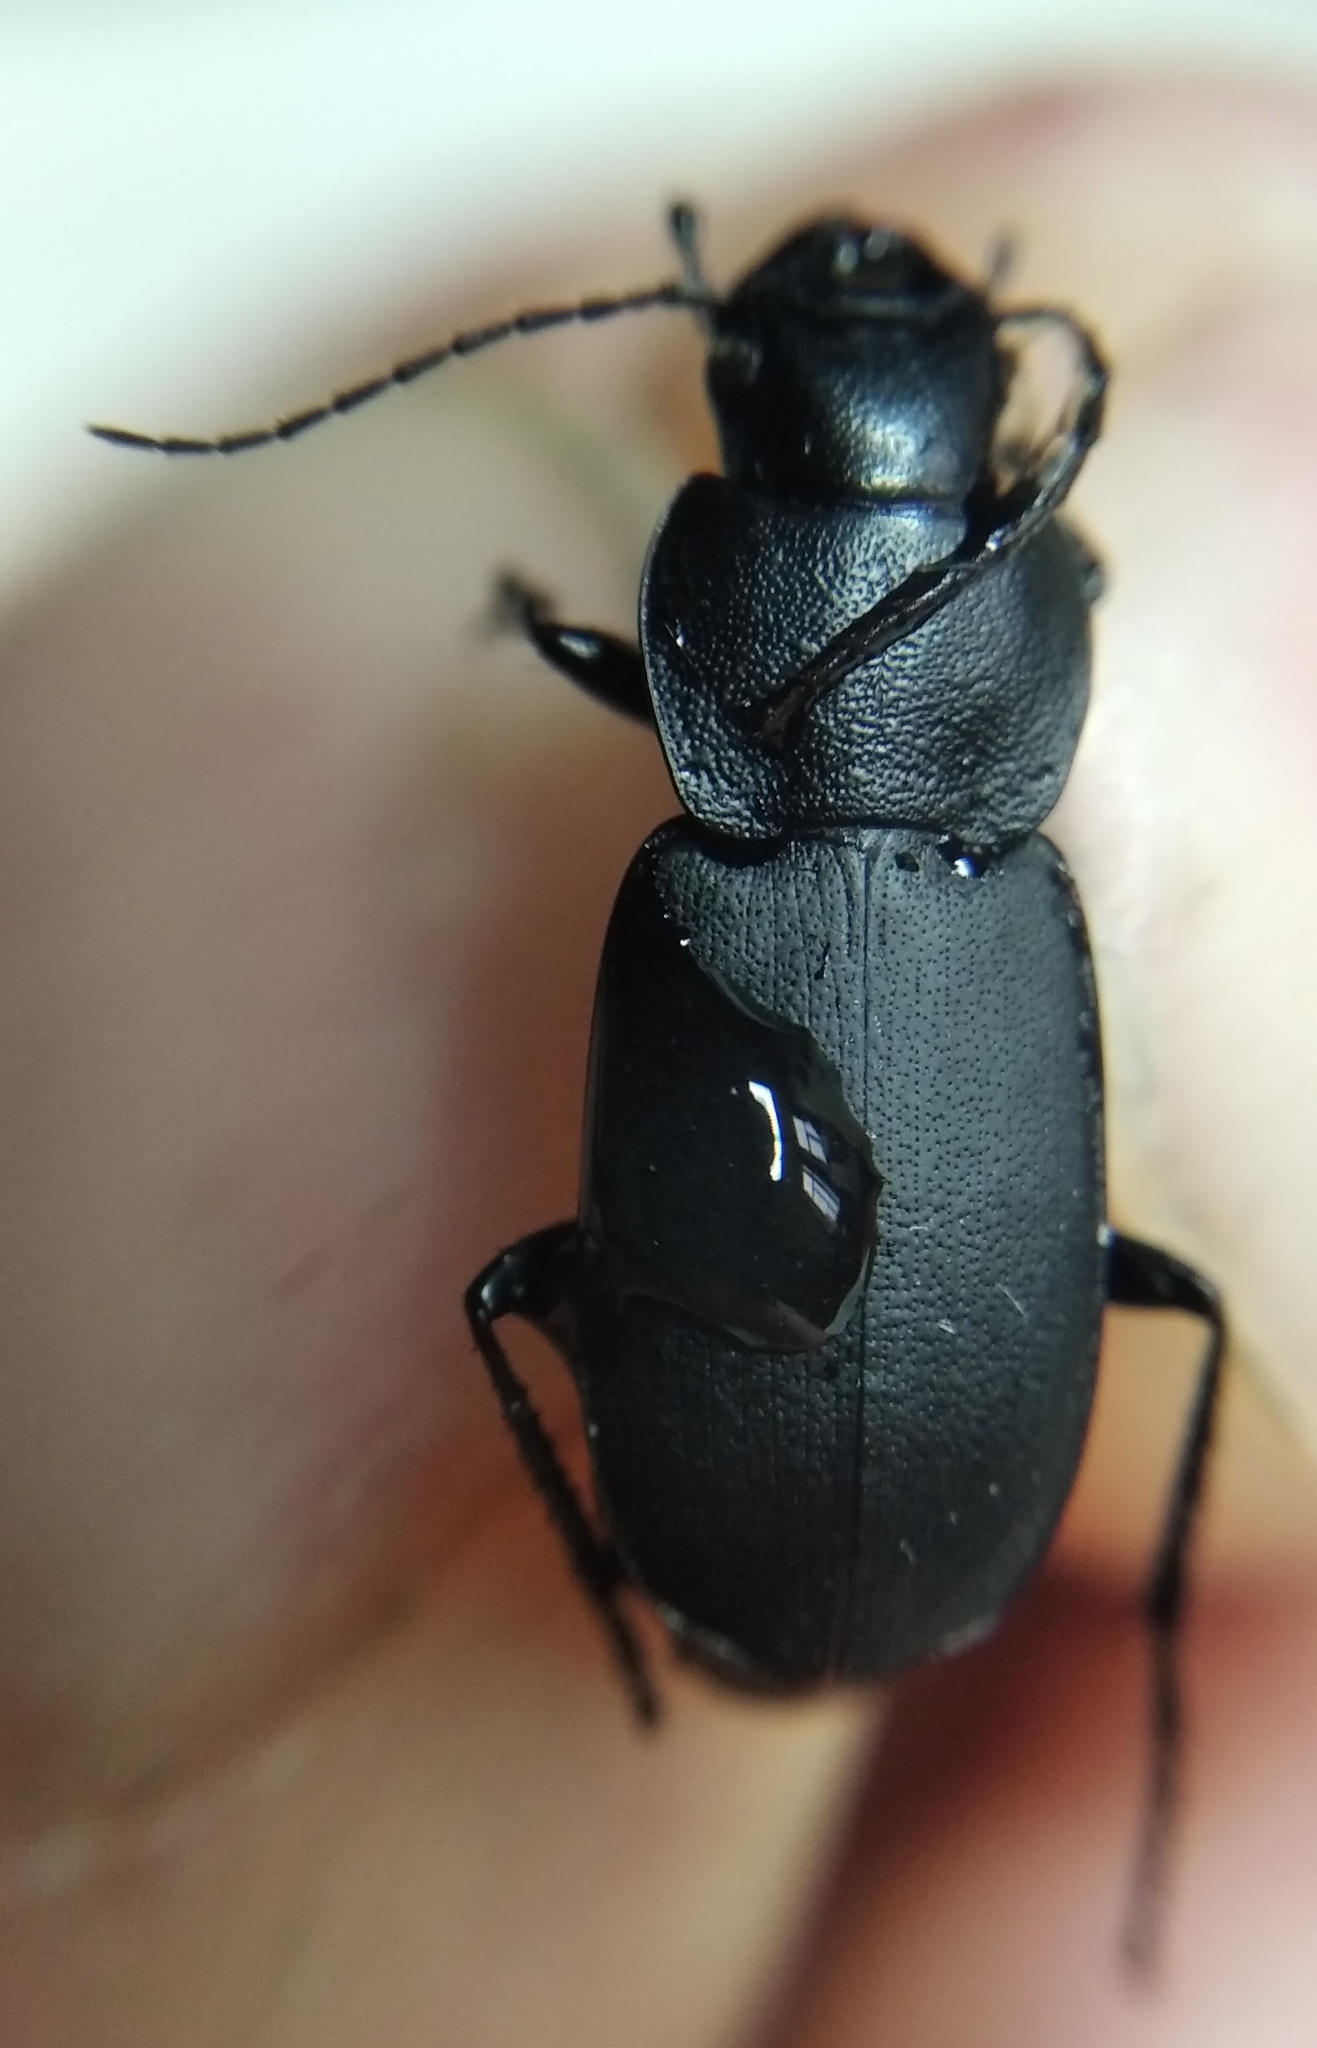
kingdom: Animalia
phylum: Arthropoda
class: Insecta
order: Coleoptera
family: Carabidae
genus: Licinus
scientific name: Licinus cassideus
